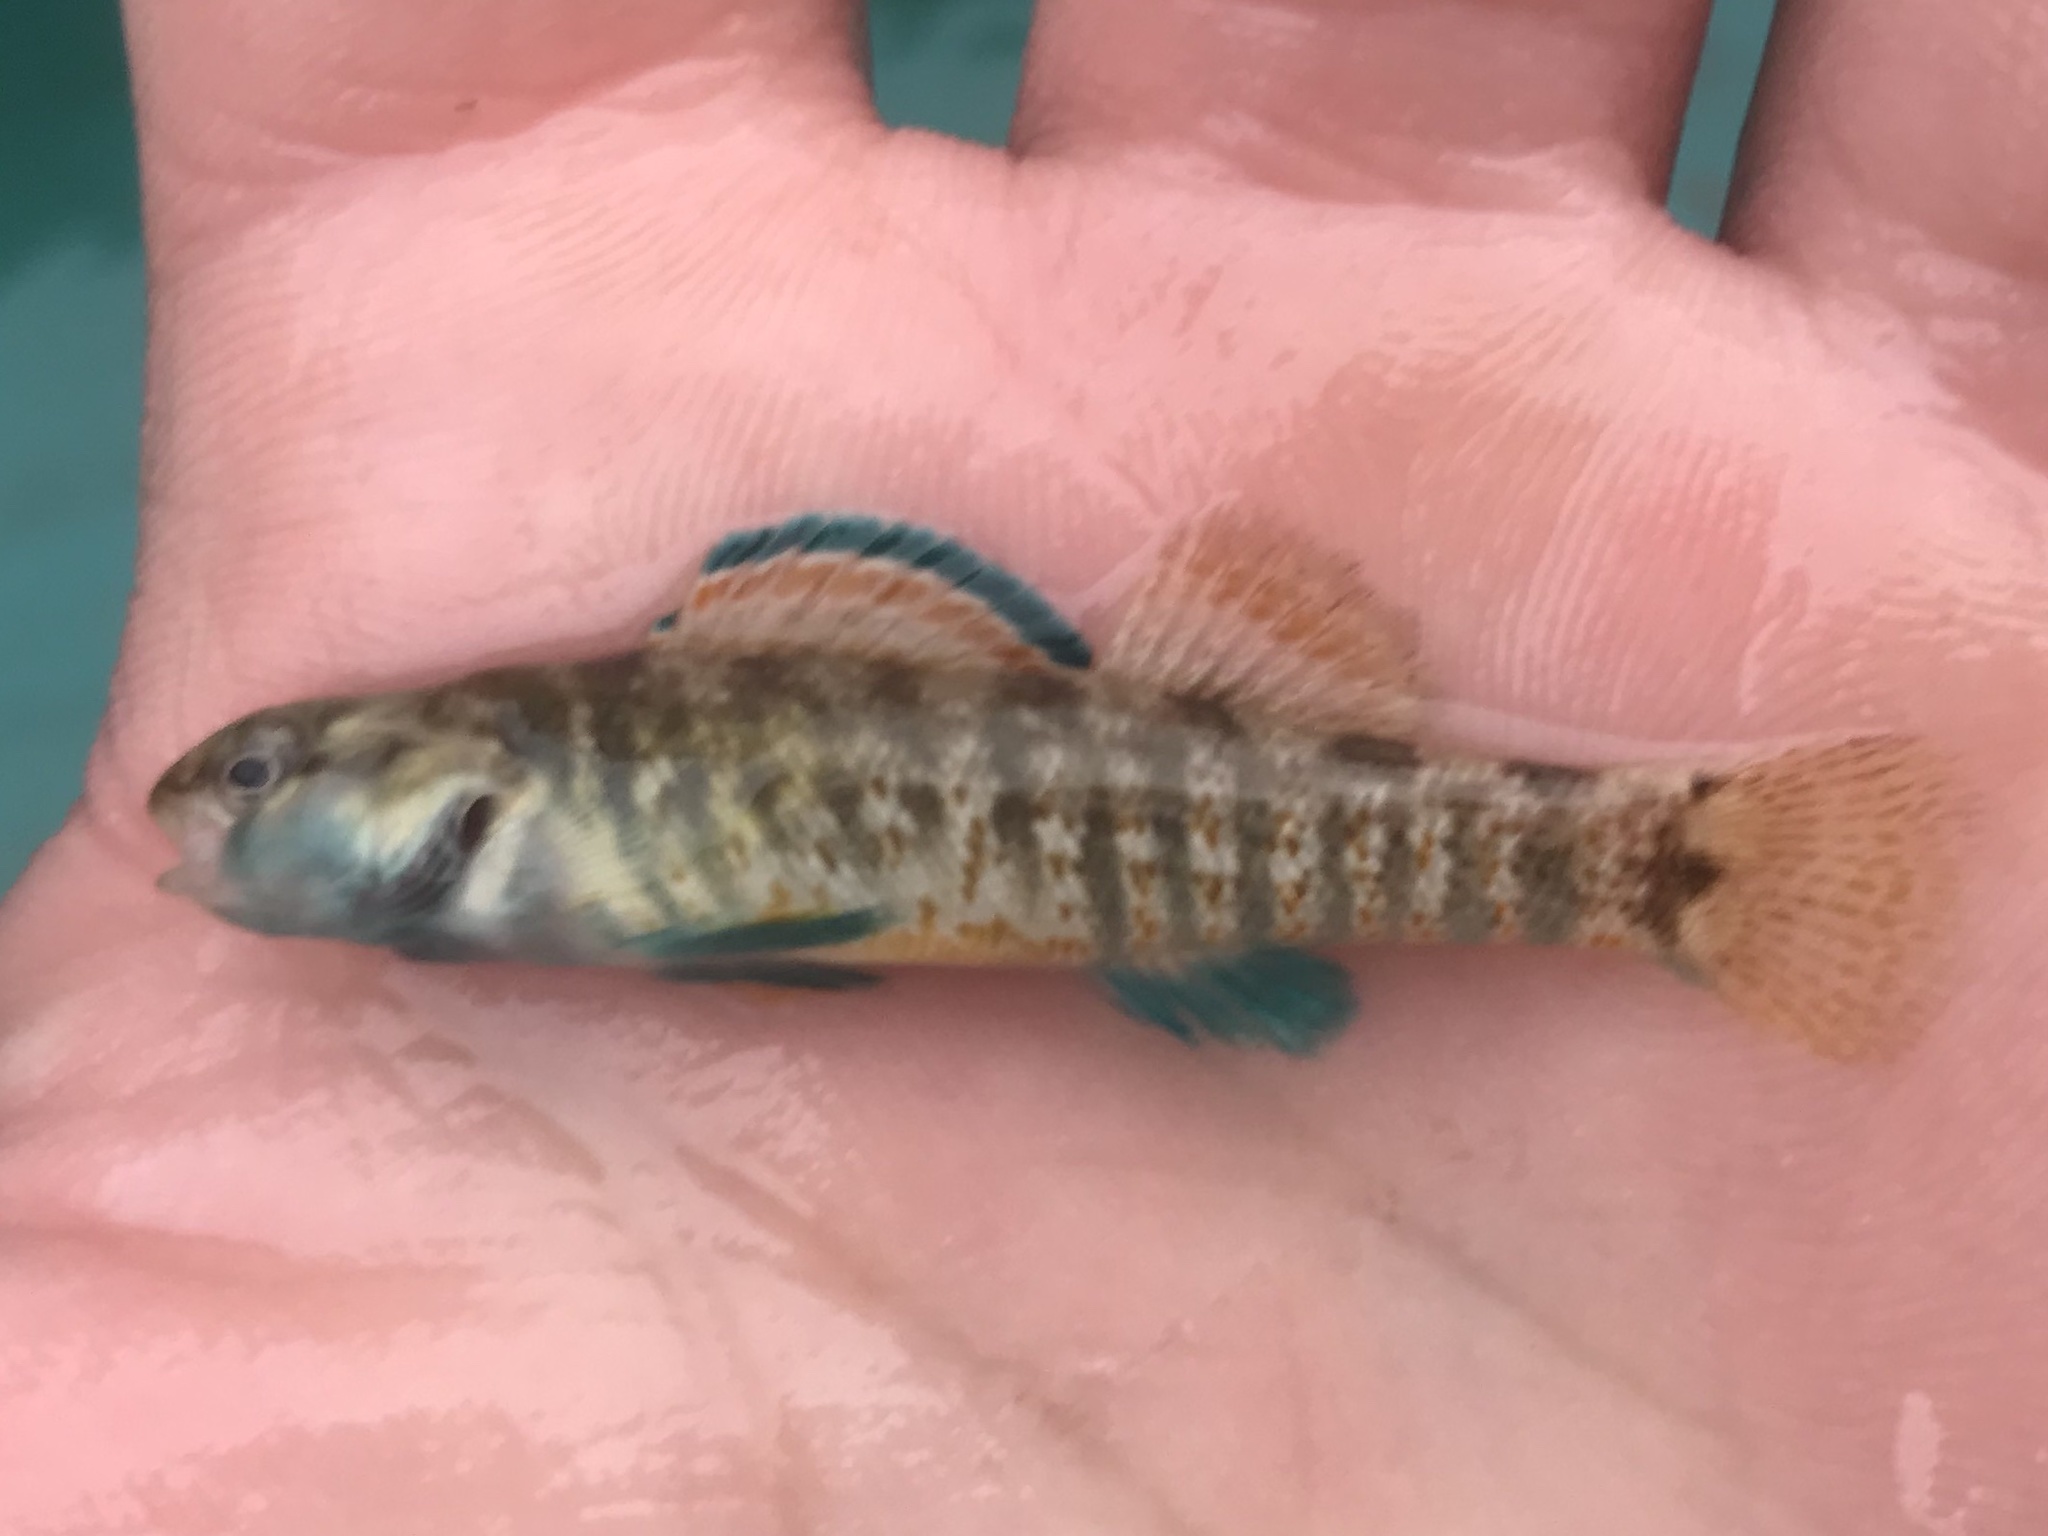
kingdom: Animalia
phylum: Chordata
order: Perciformes
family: Percidae
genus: Etheostoma
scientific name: Etheostoma lepidum
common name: Greenthroat darter
